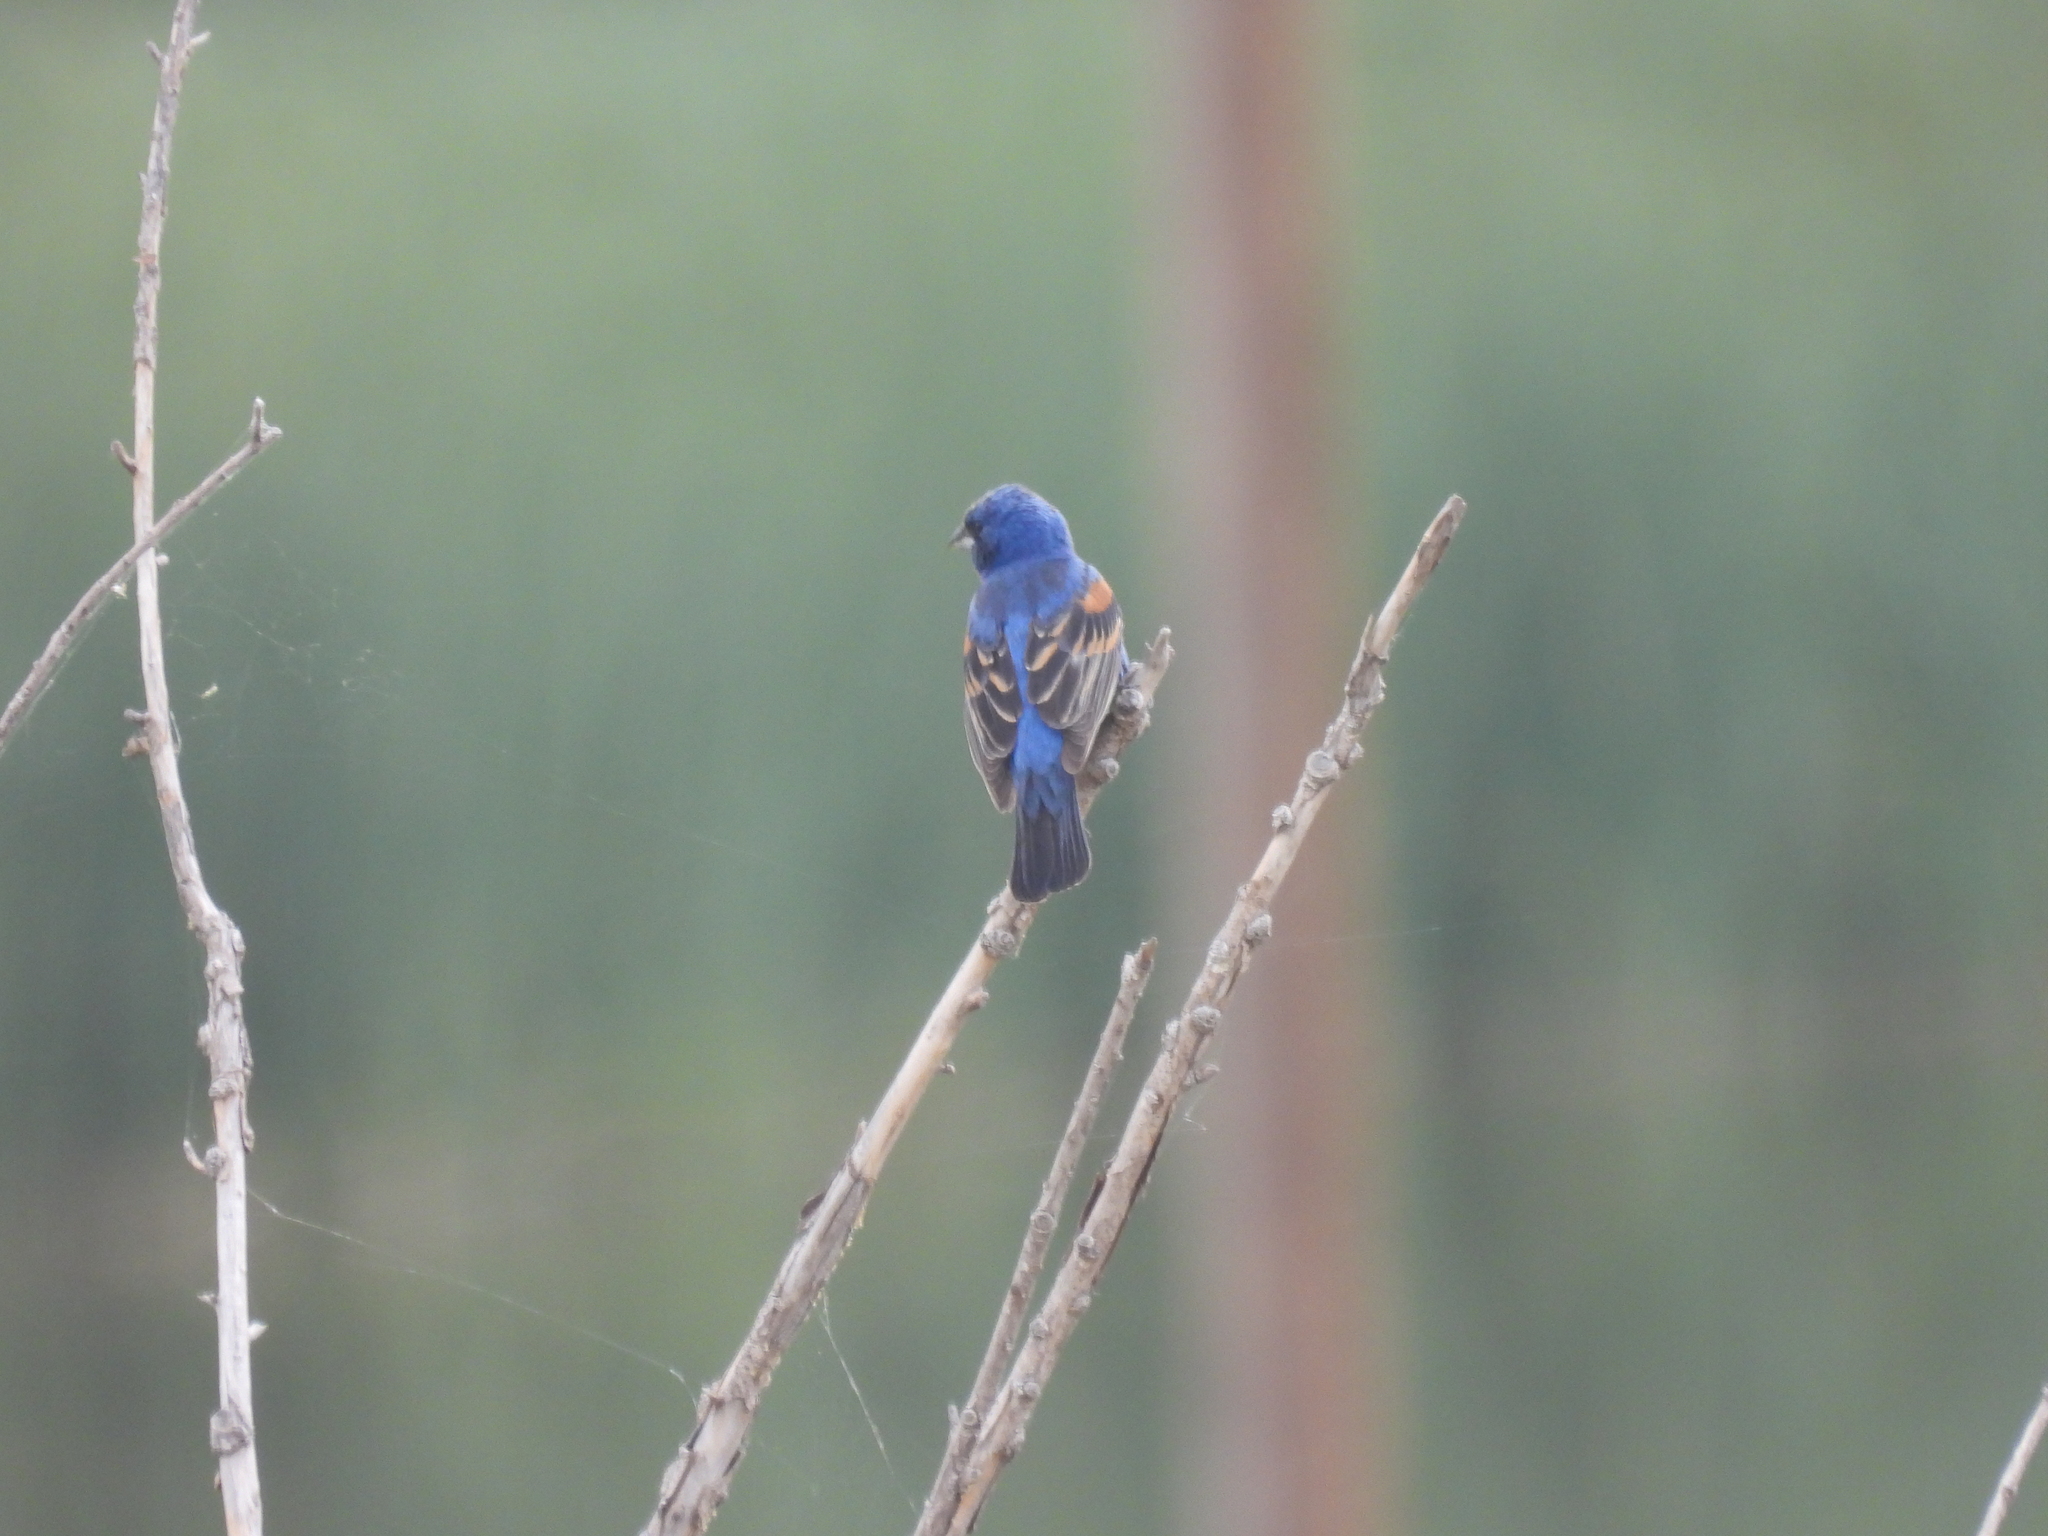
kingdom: Animalia
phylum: Chordata
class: Aves
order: Passeriformes
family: Cardinalidae
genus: Passerina
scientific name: Passerina caerulea
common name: Blue grosbeak
